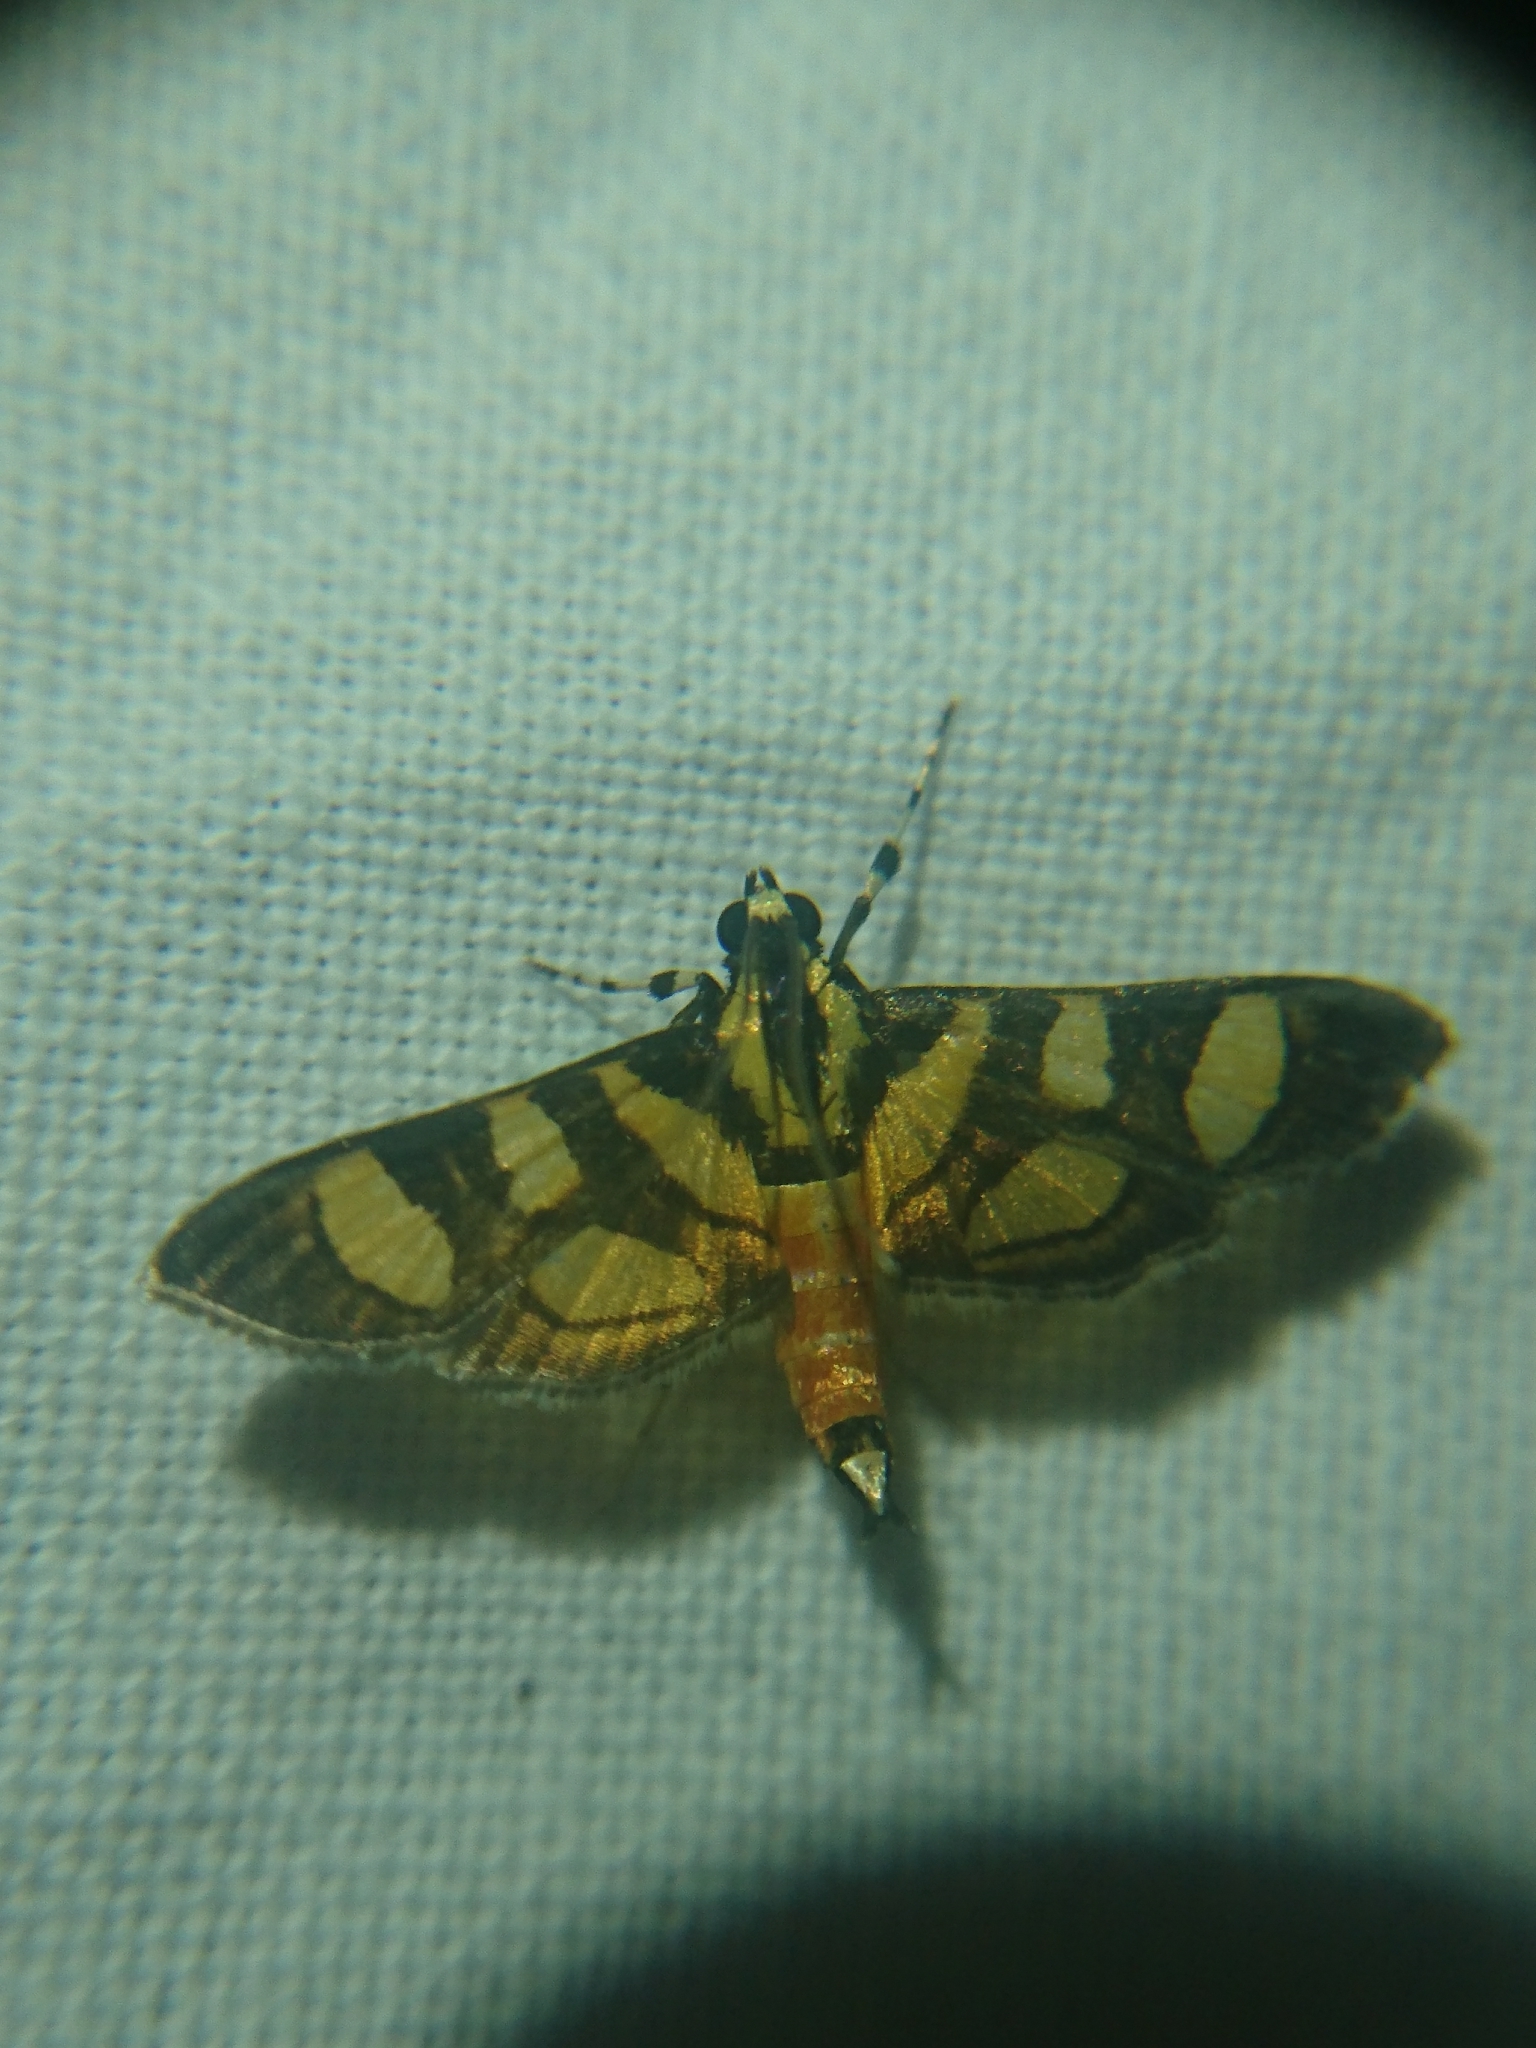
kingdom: Animalia
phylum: Arthropoda
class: Insecta
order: Lepidoptera
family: Crambidae
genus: Syngamia
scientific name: Syngamia florella
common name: Orange-spotted flower moth
